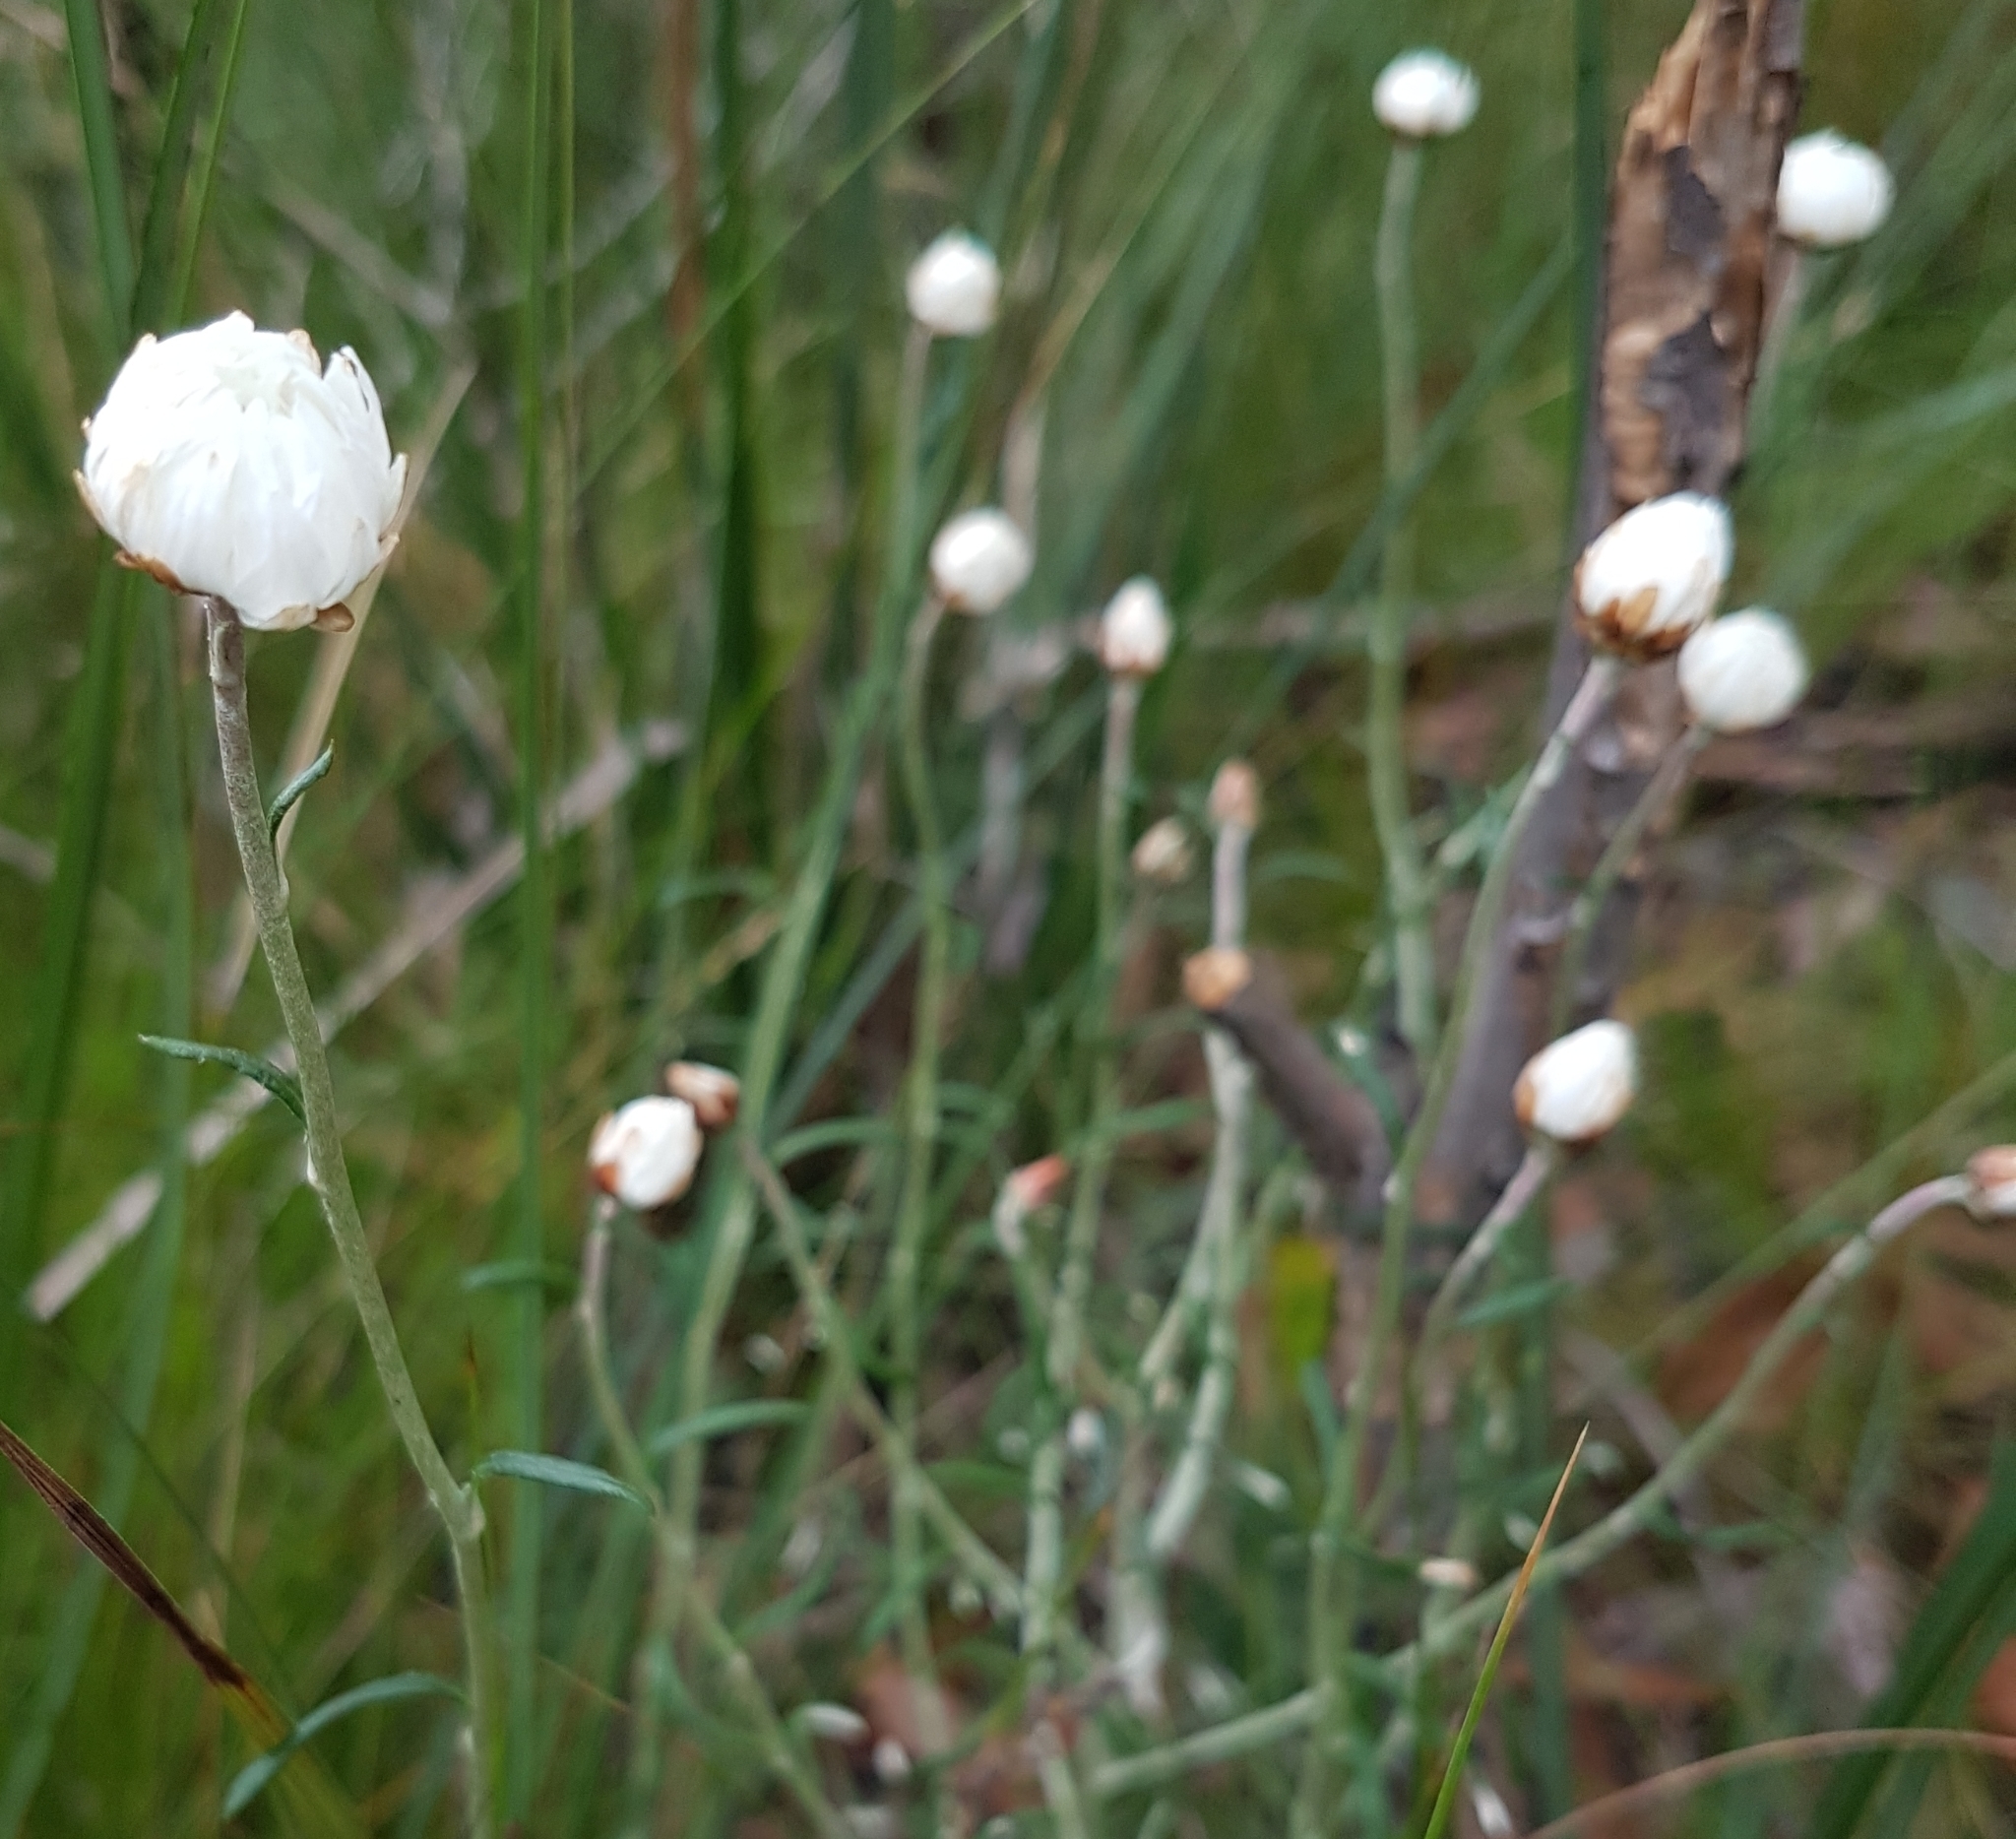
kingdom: Plantae
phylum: Tracheophyta
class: Magnoliopsida
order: Asterales
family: Asteraceae
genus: Argentipallium
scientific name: Argentipallium obtusifolium
